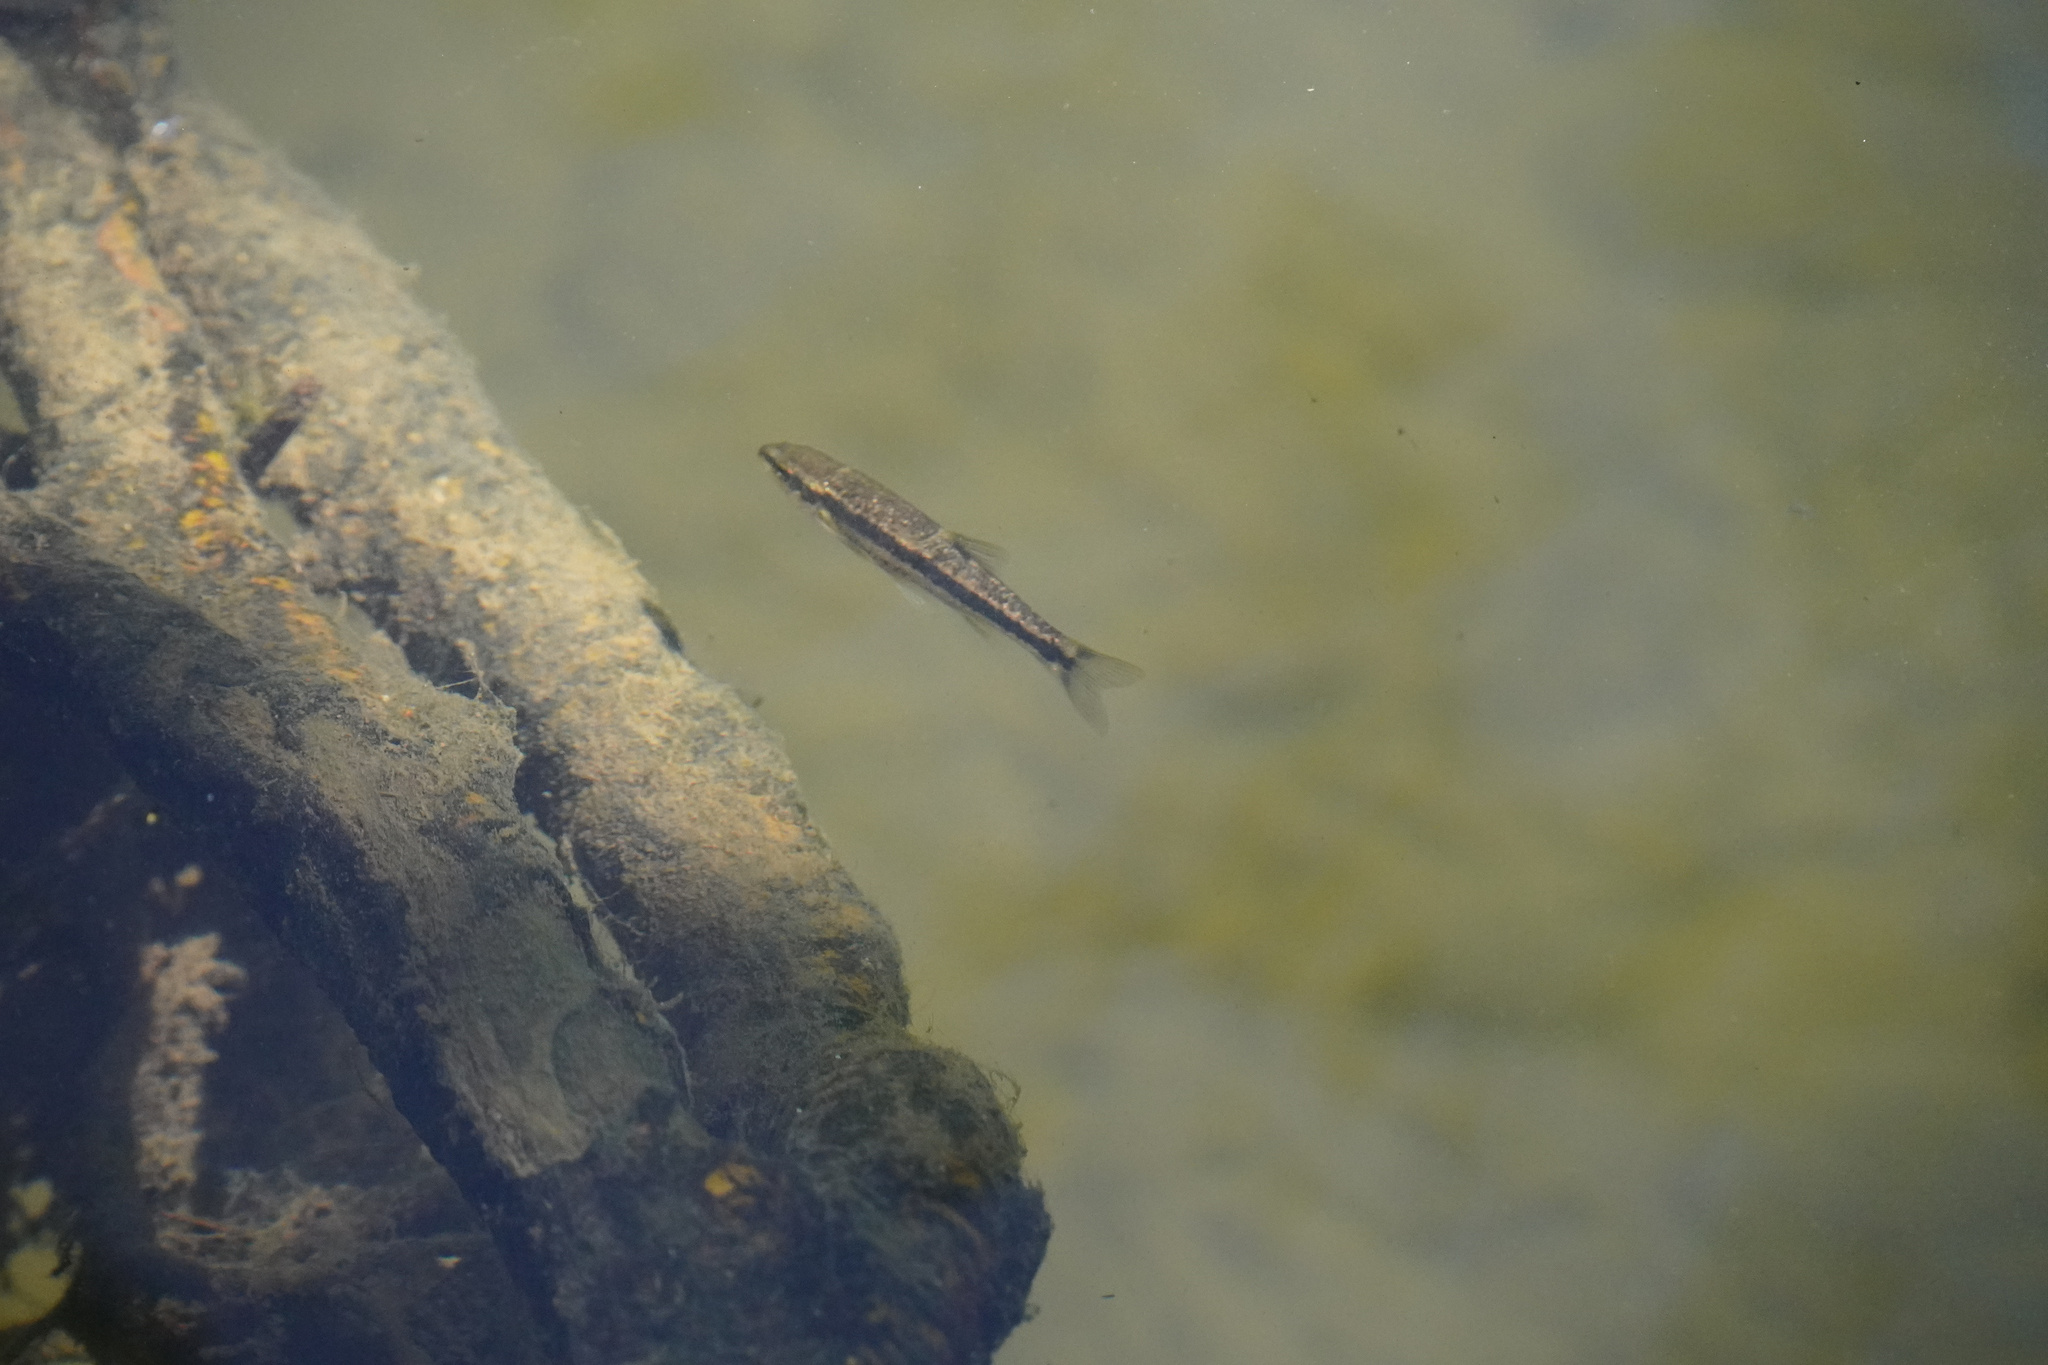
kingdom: Animalia
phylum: Chordata
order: Cypriniformes
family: Cyprinidae
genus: Rhinichthys
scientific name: Rhinichthys osculus
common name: Speckled dace
